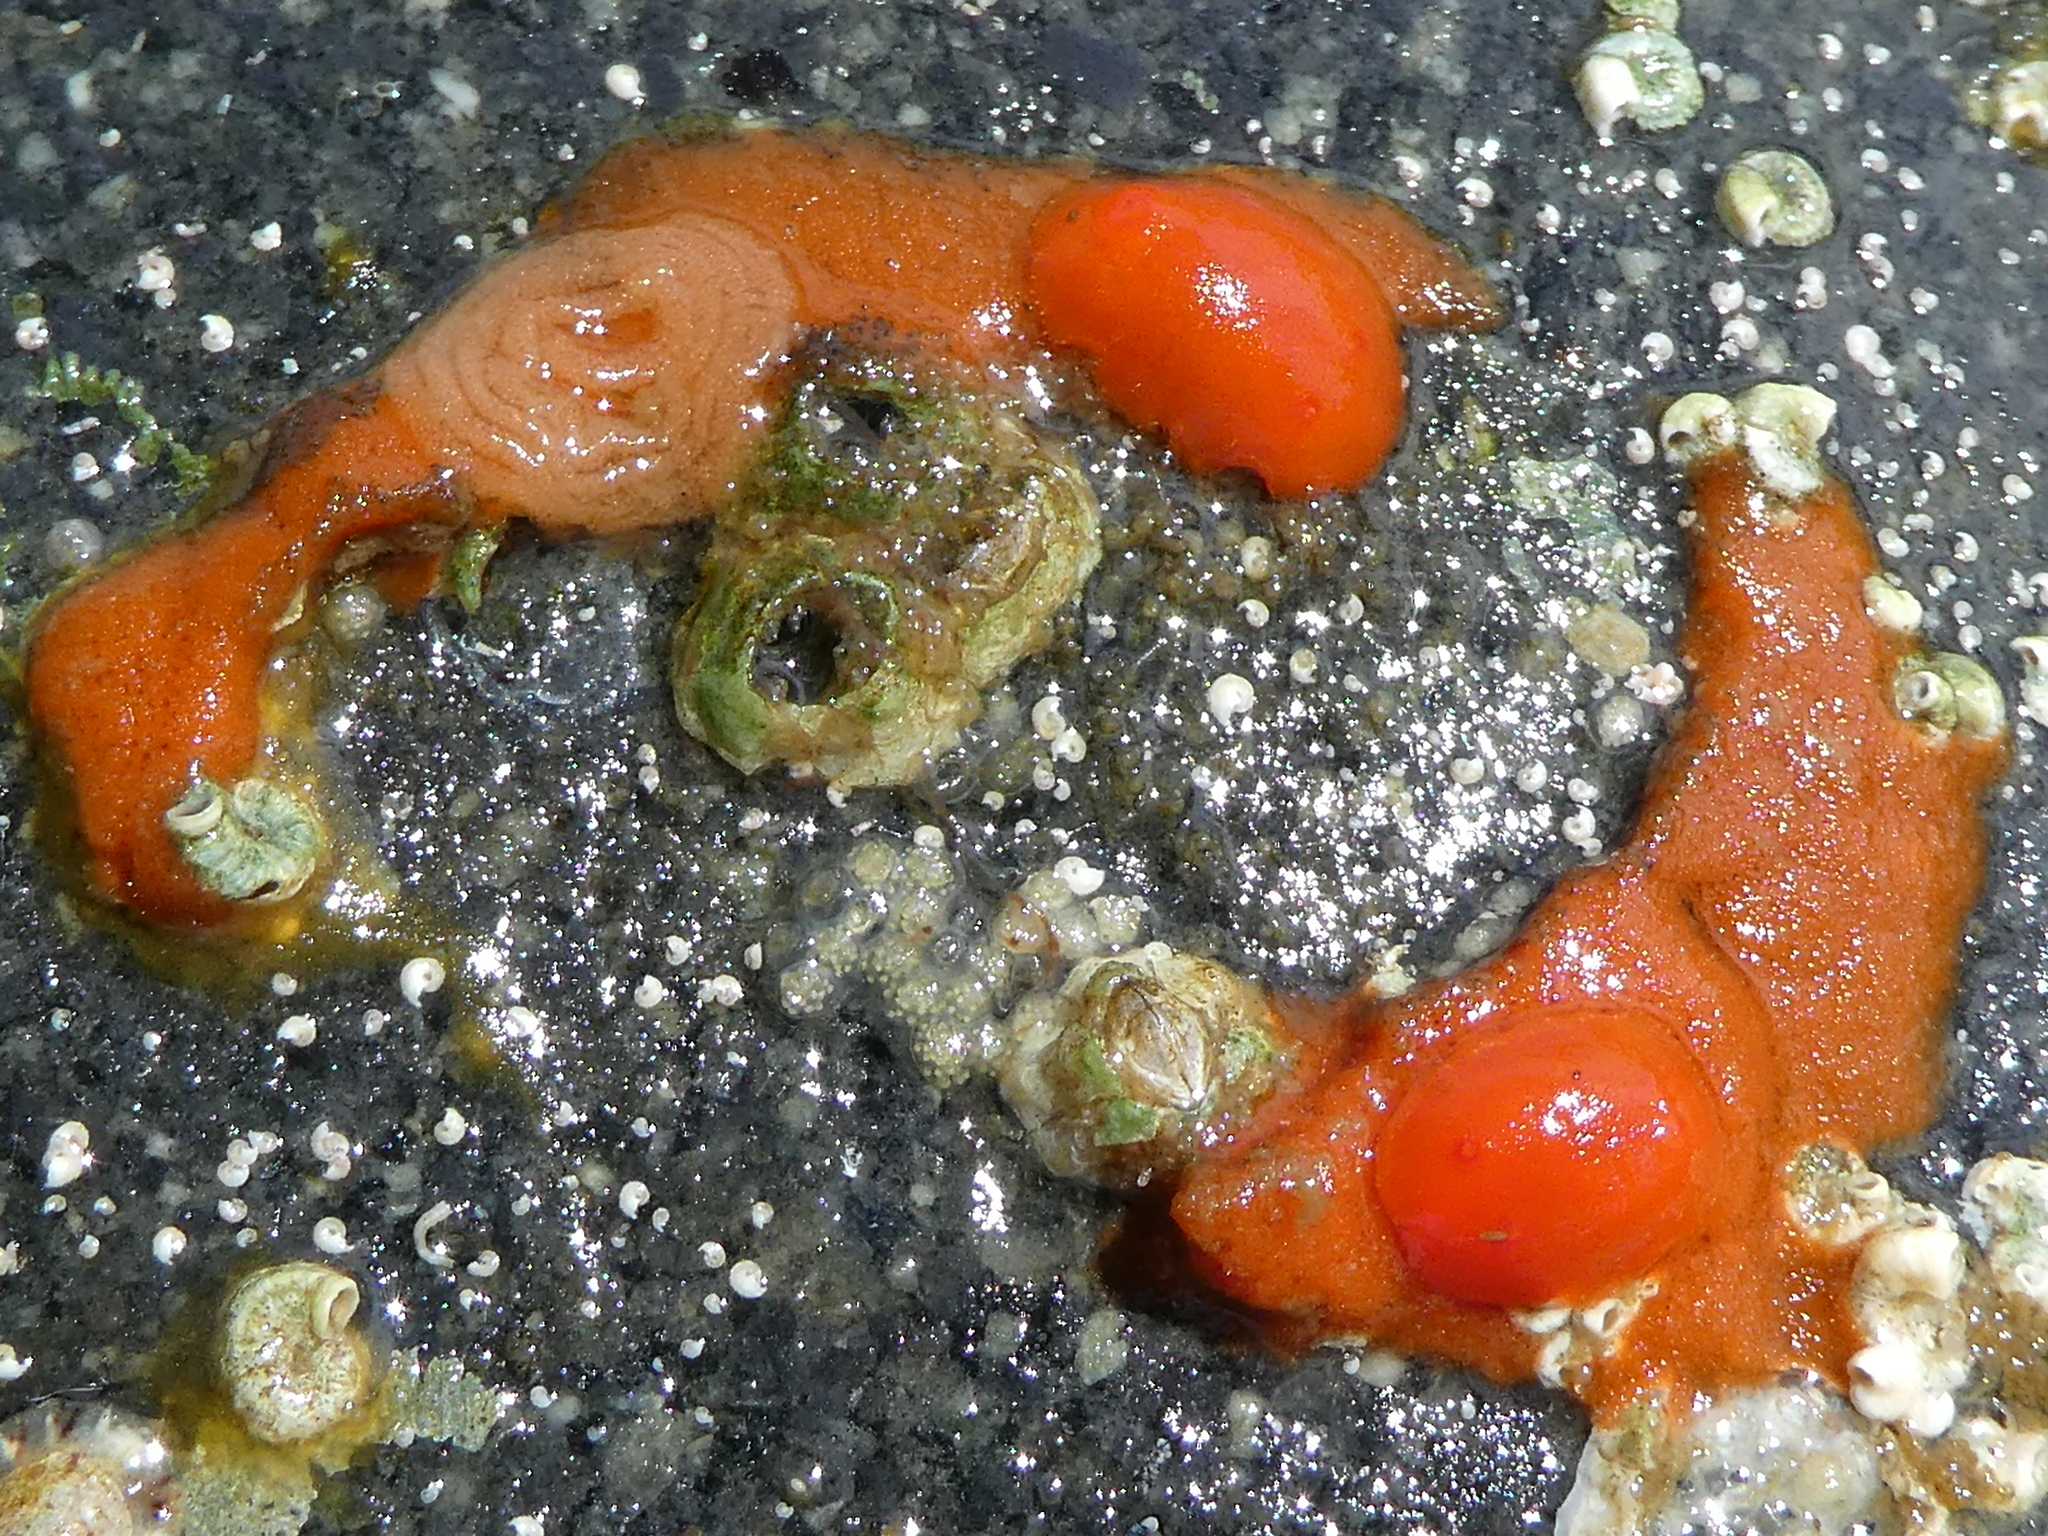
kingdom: Animalia
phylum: Mollusca
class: Gastropoda
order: Nudibranchia
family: Discodorididae
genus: Rostanga
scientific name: Rostanga pulchra
